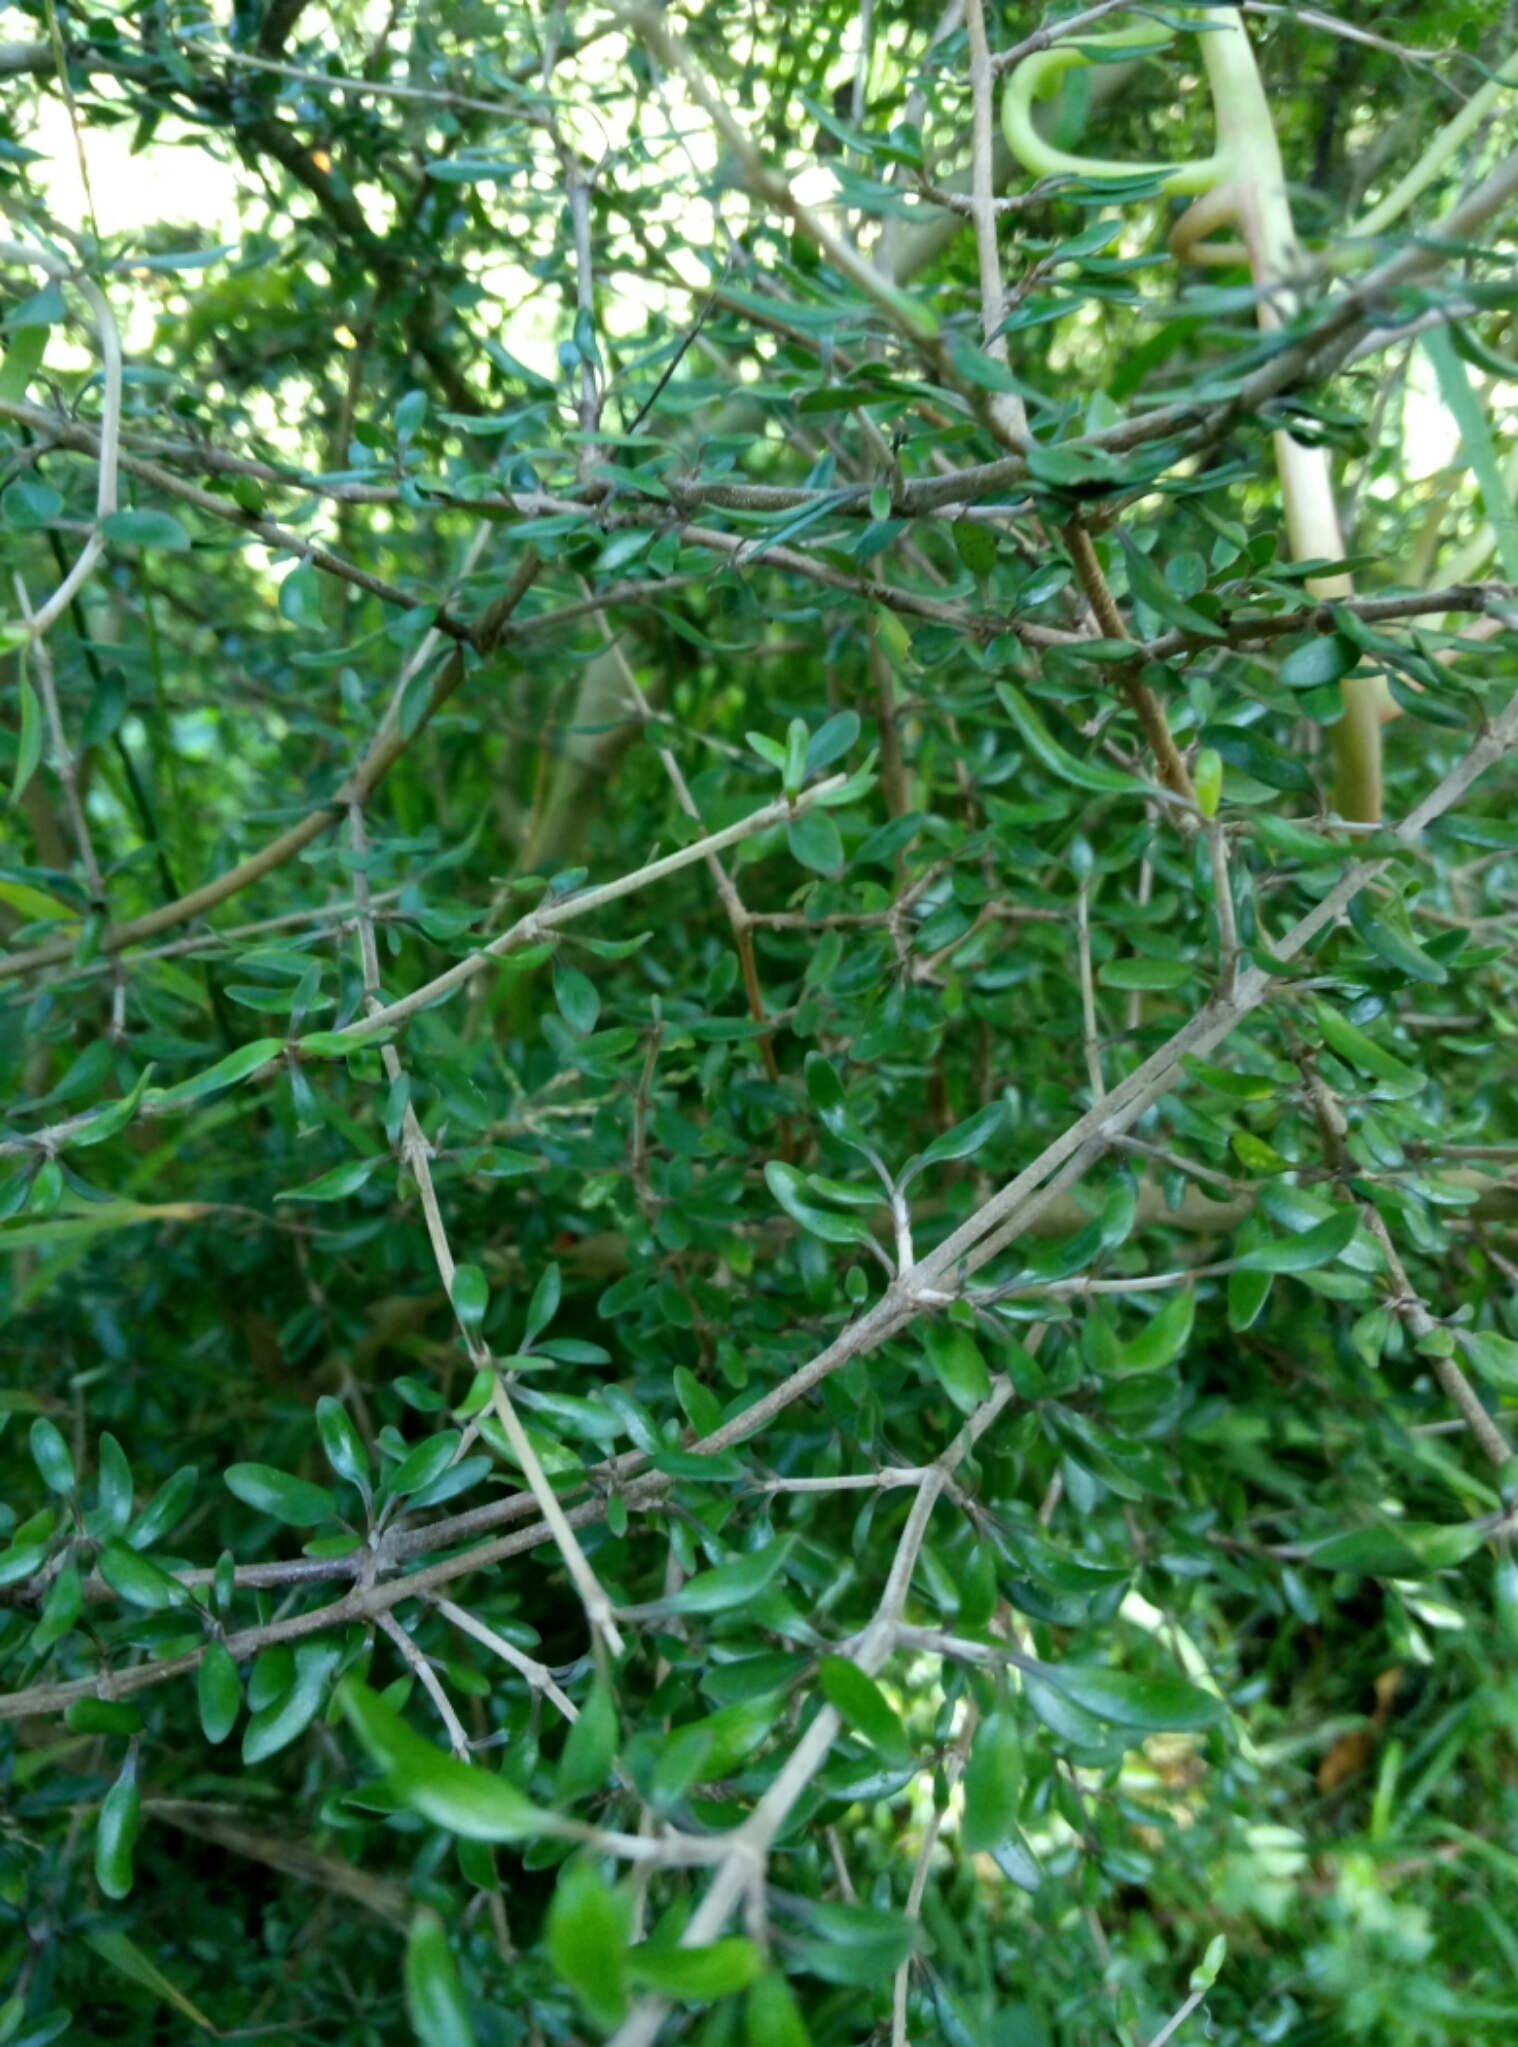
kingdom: Plantae
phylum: Tracheophyta
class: Magnoliopsida
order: Gentianales
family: Rubiaceae
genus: Coprosma
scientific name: Coprosma propinqua
